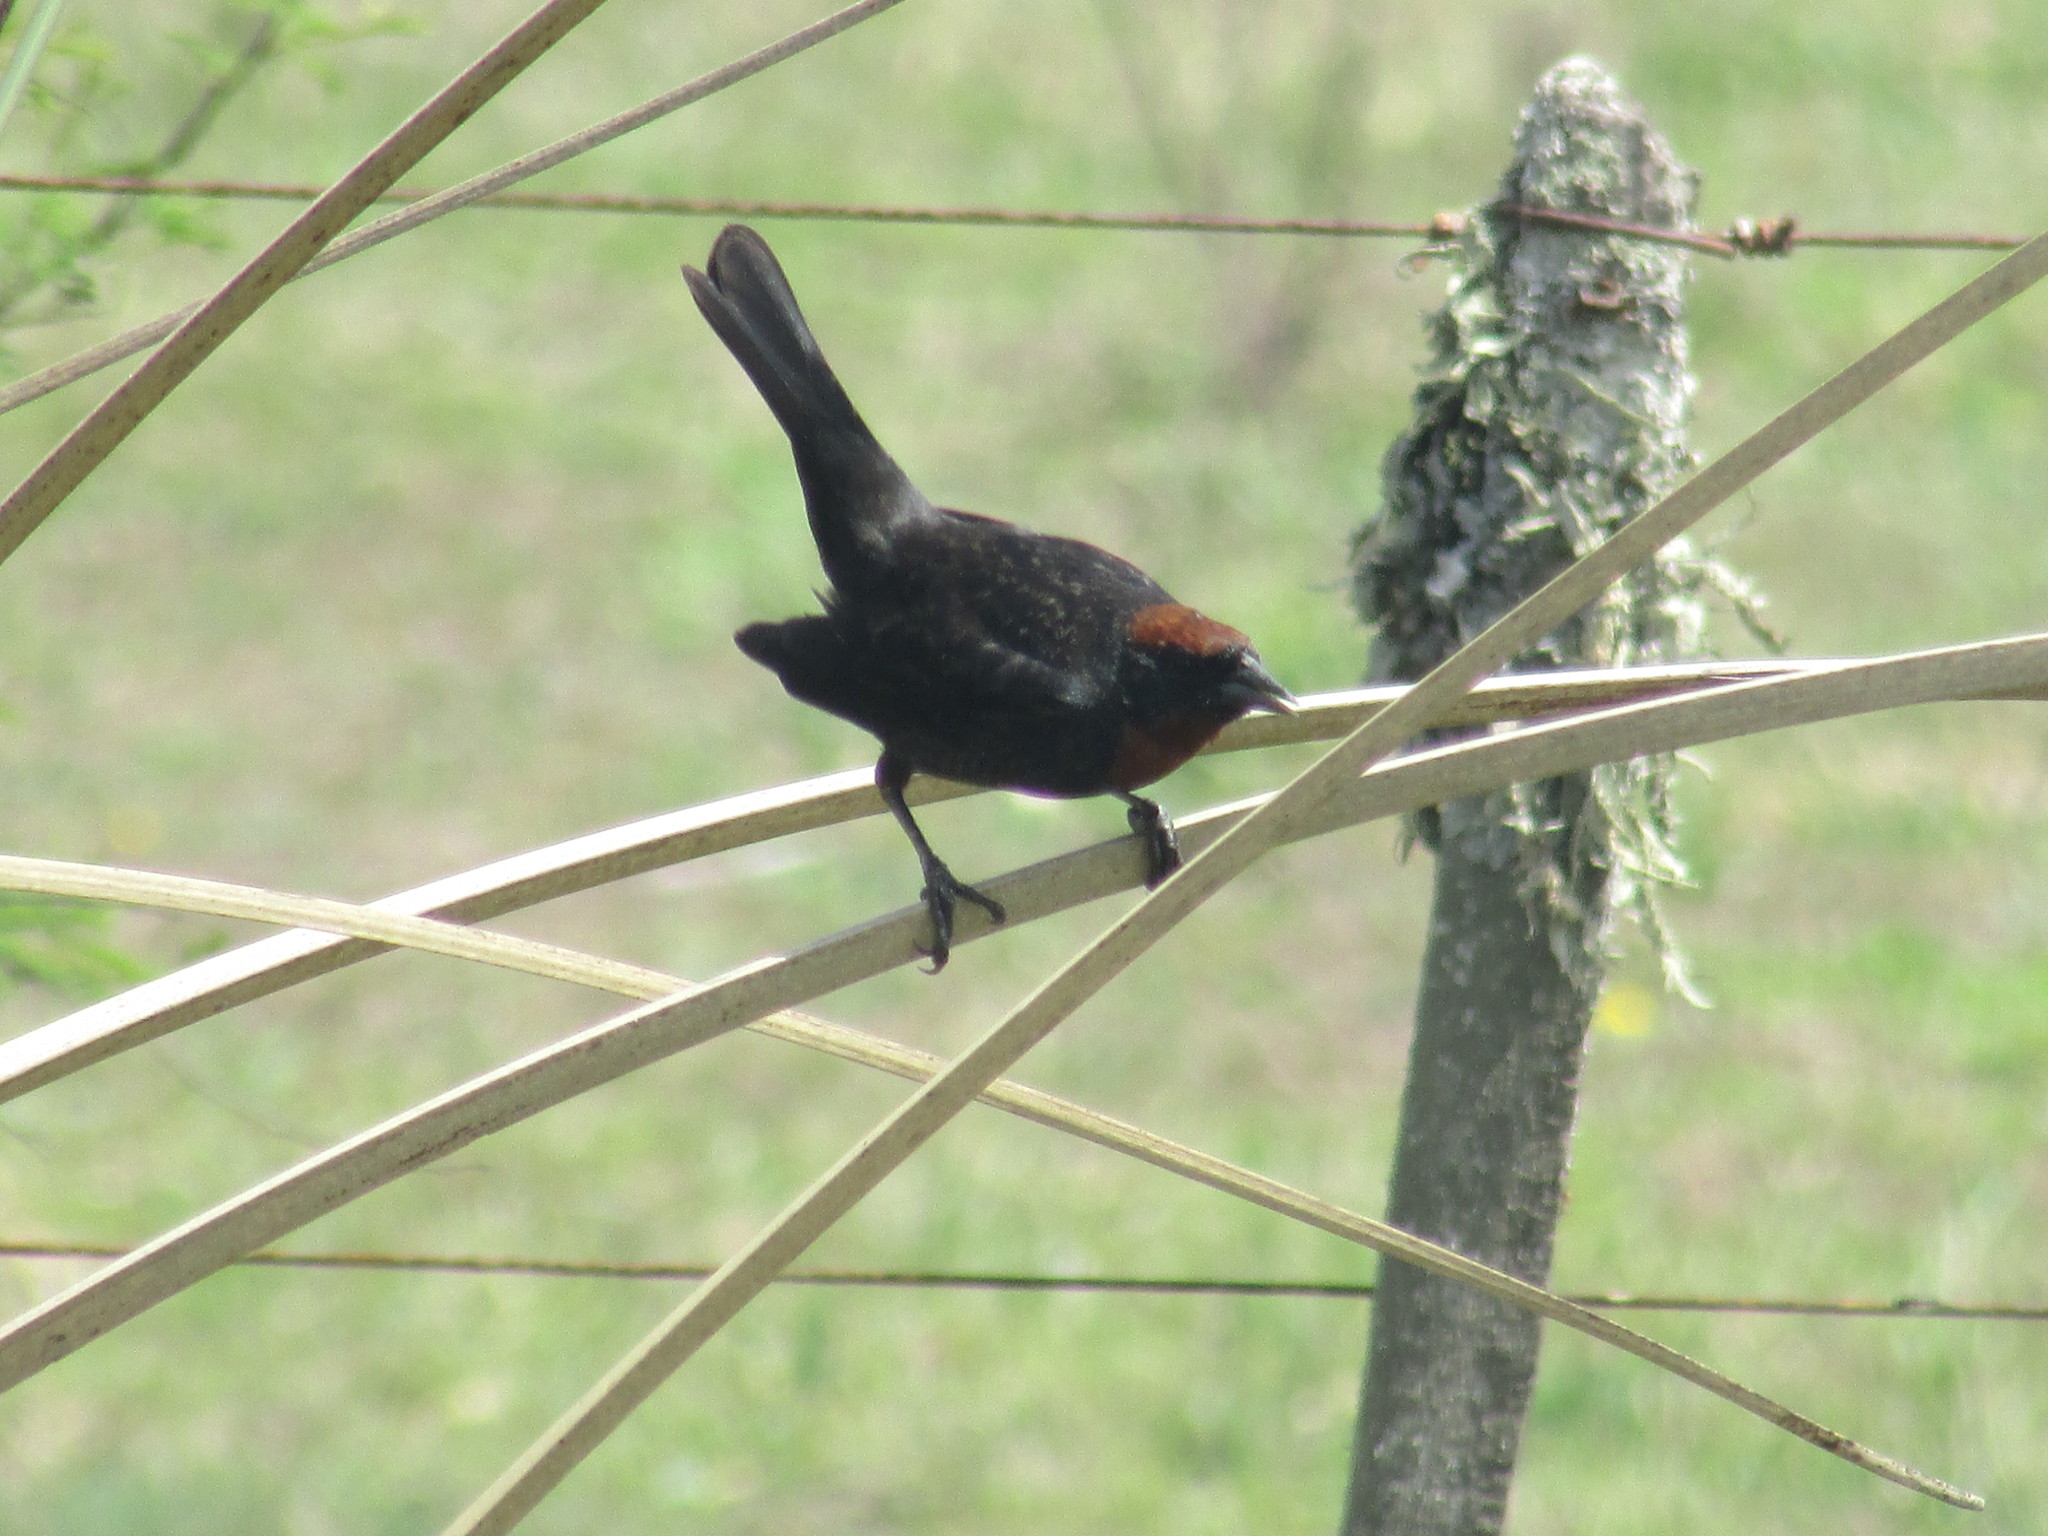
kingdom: Animalia
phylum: Chordata
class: Aves
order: Passeriformes
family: Icteridae
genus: Chrysomus
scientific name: Chrysomus ruficapillus
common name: Chestnut-capped blackbird
